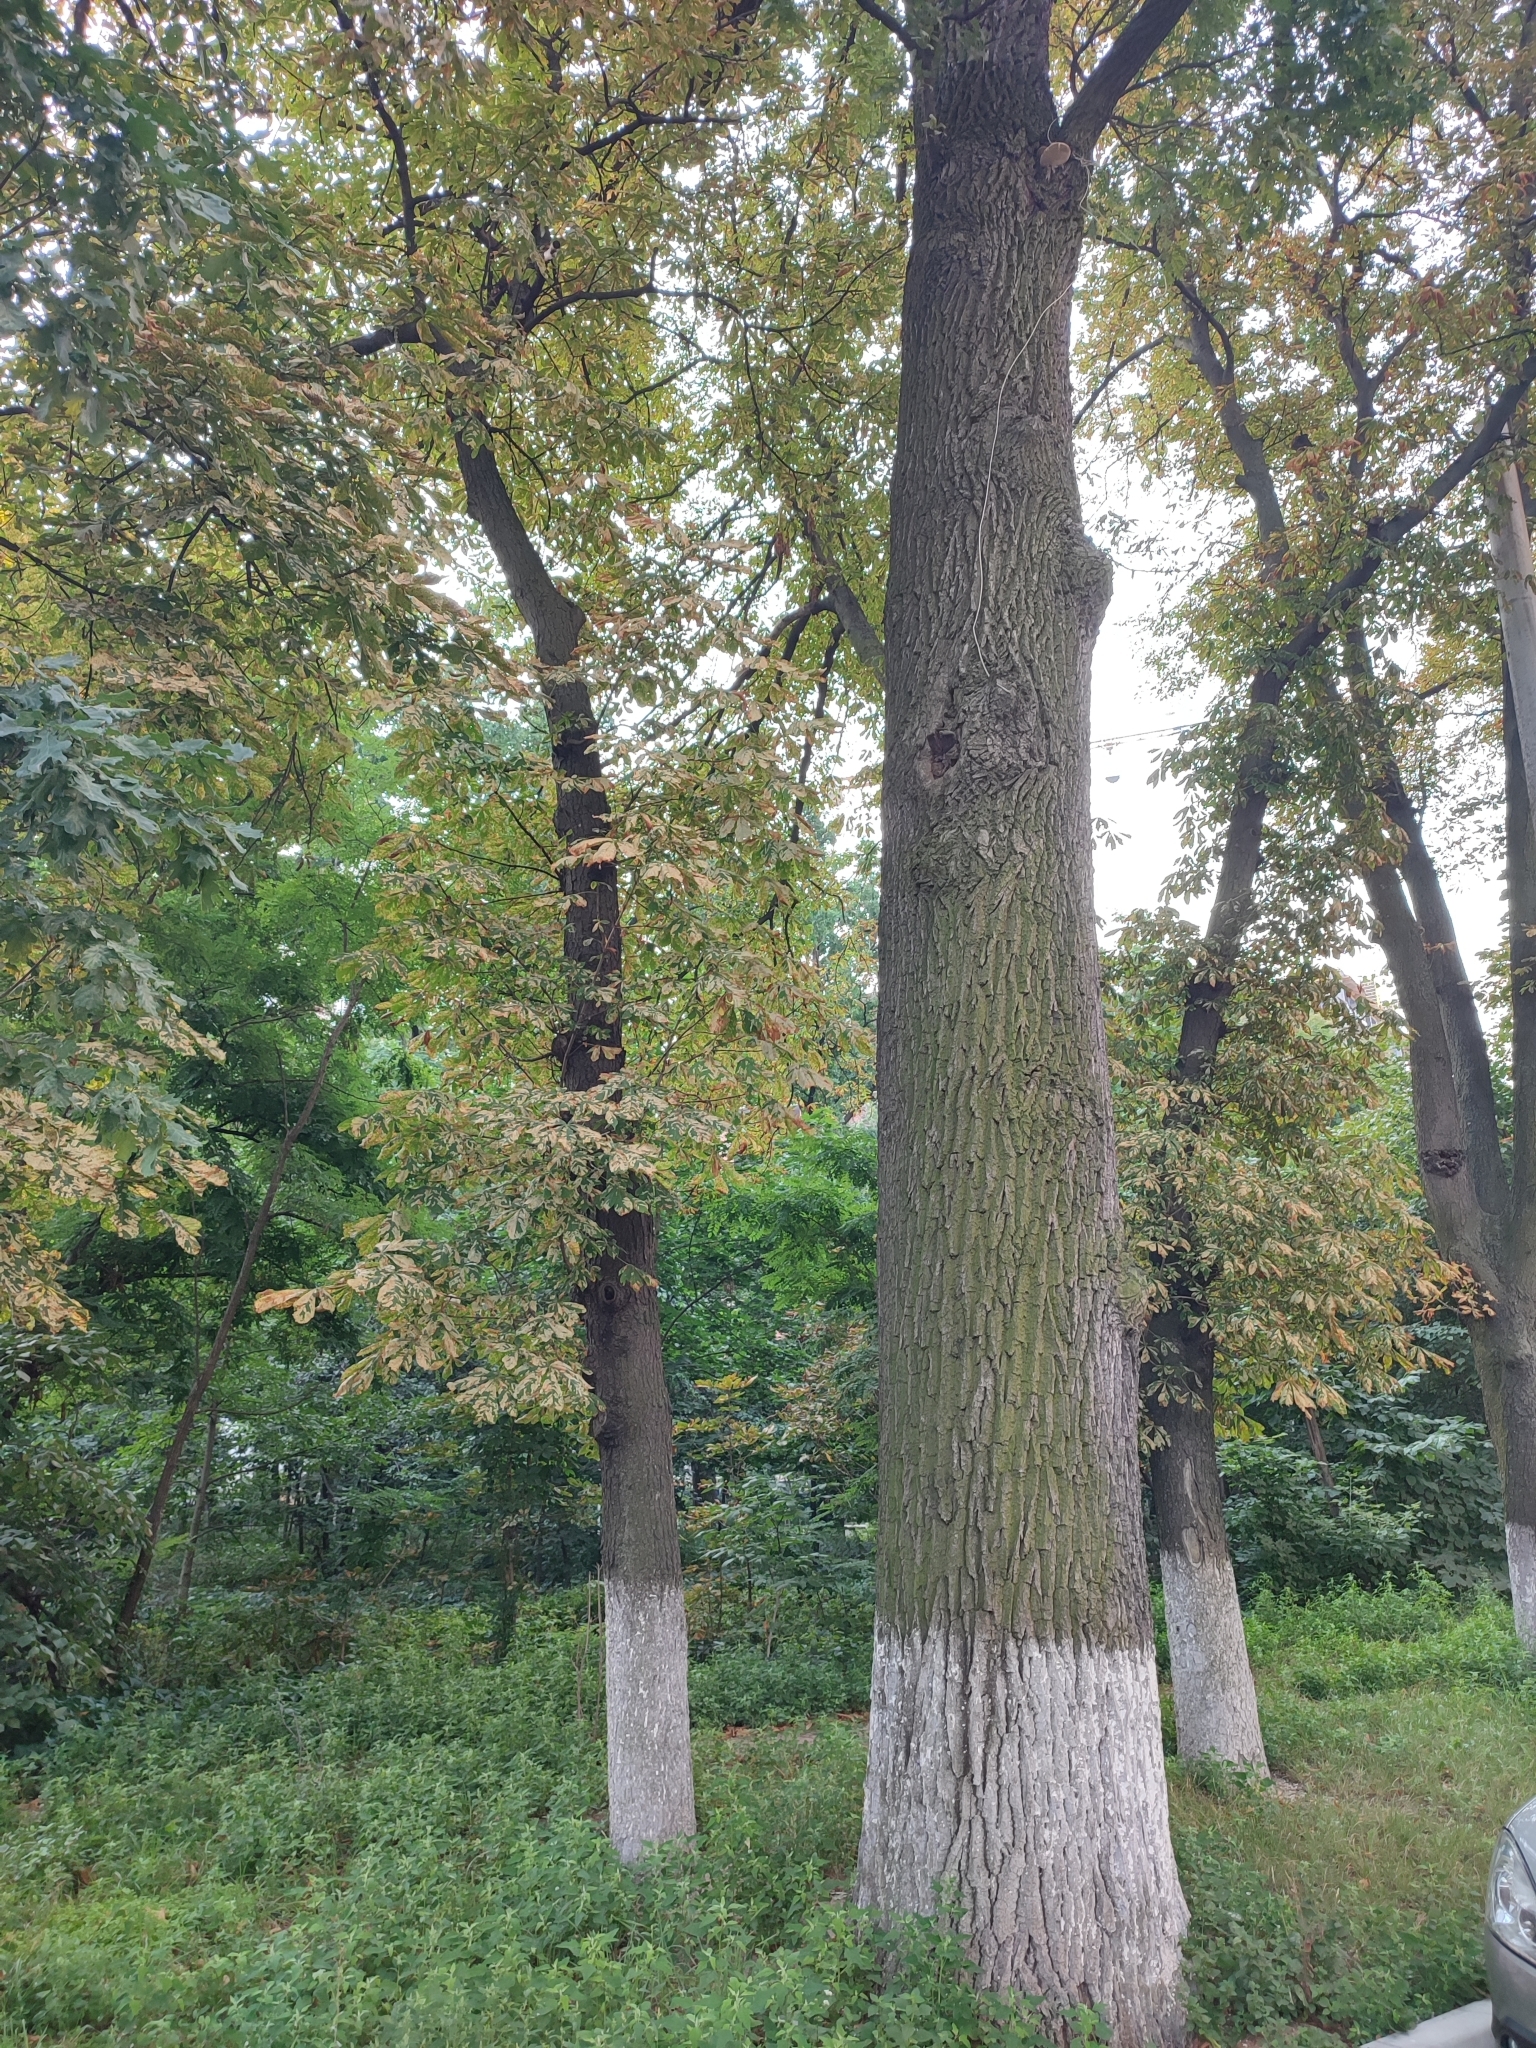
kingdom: Plantae
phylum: Tracheophyta
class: Magnoliopsida
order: Fagales
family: Fagaceae
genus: Quercus
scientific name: Quercus robur
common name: Pedunculate oak
